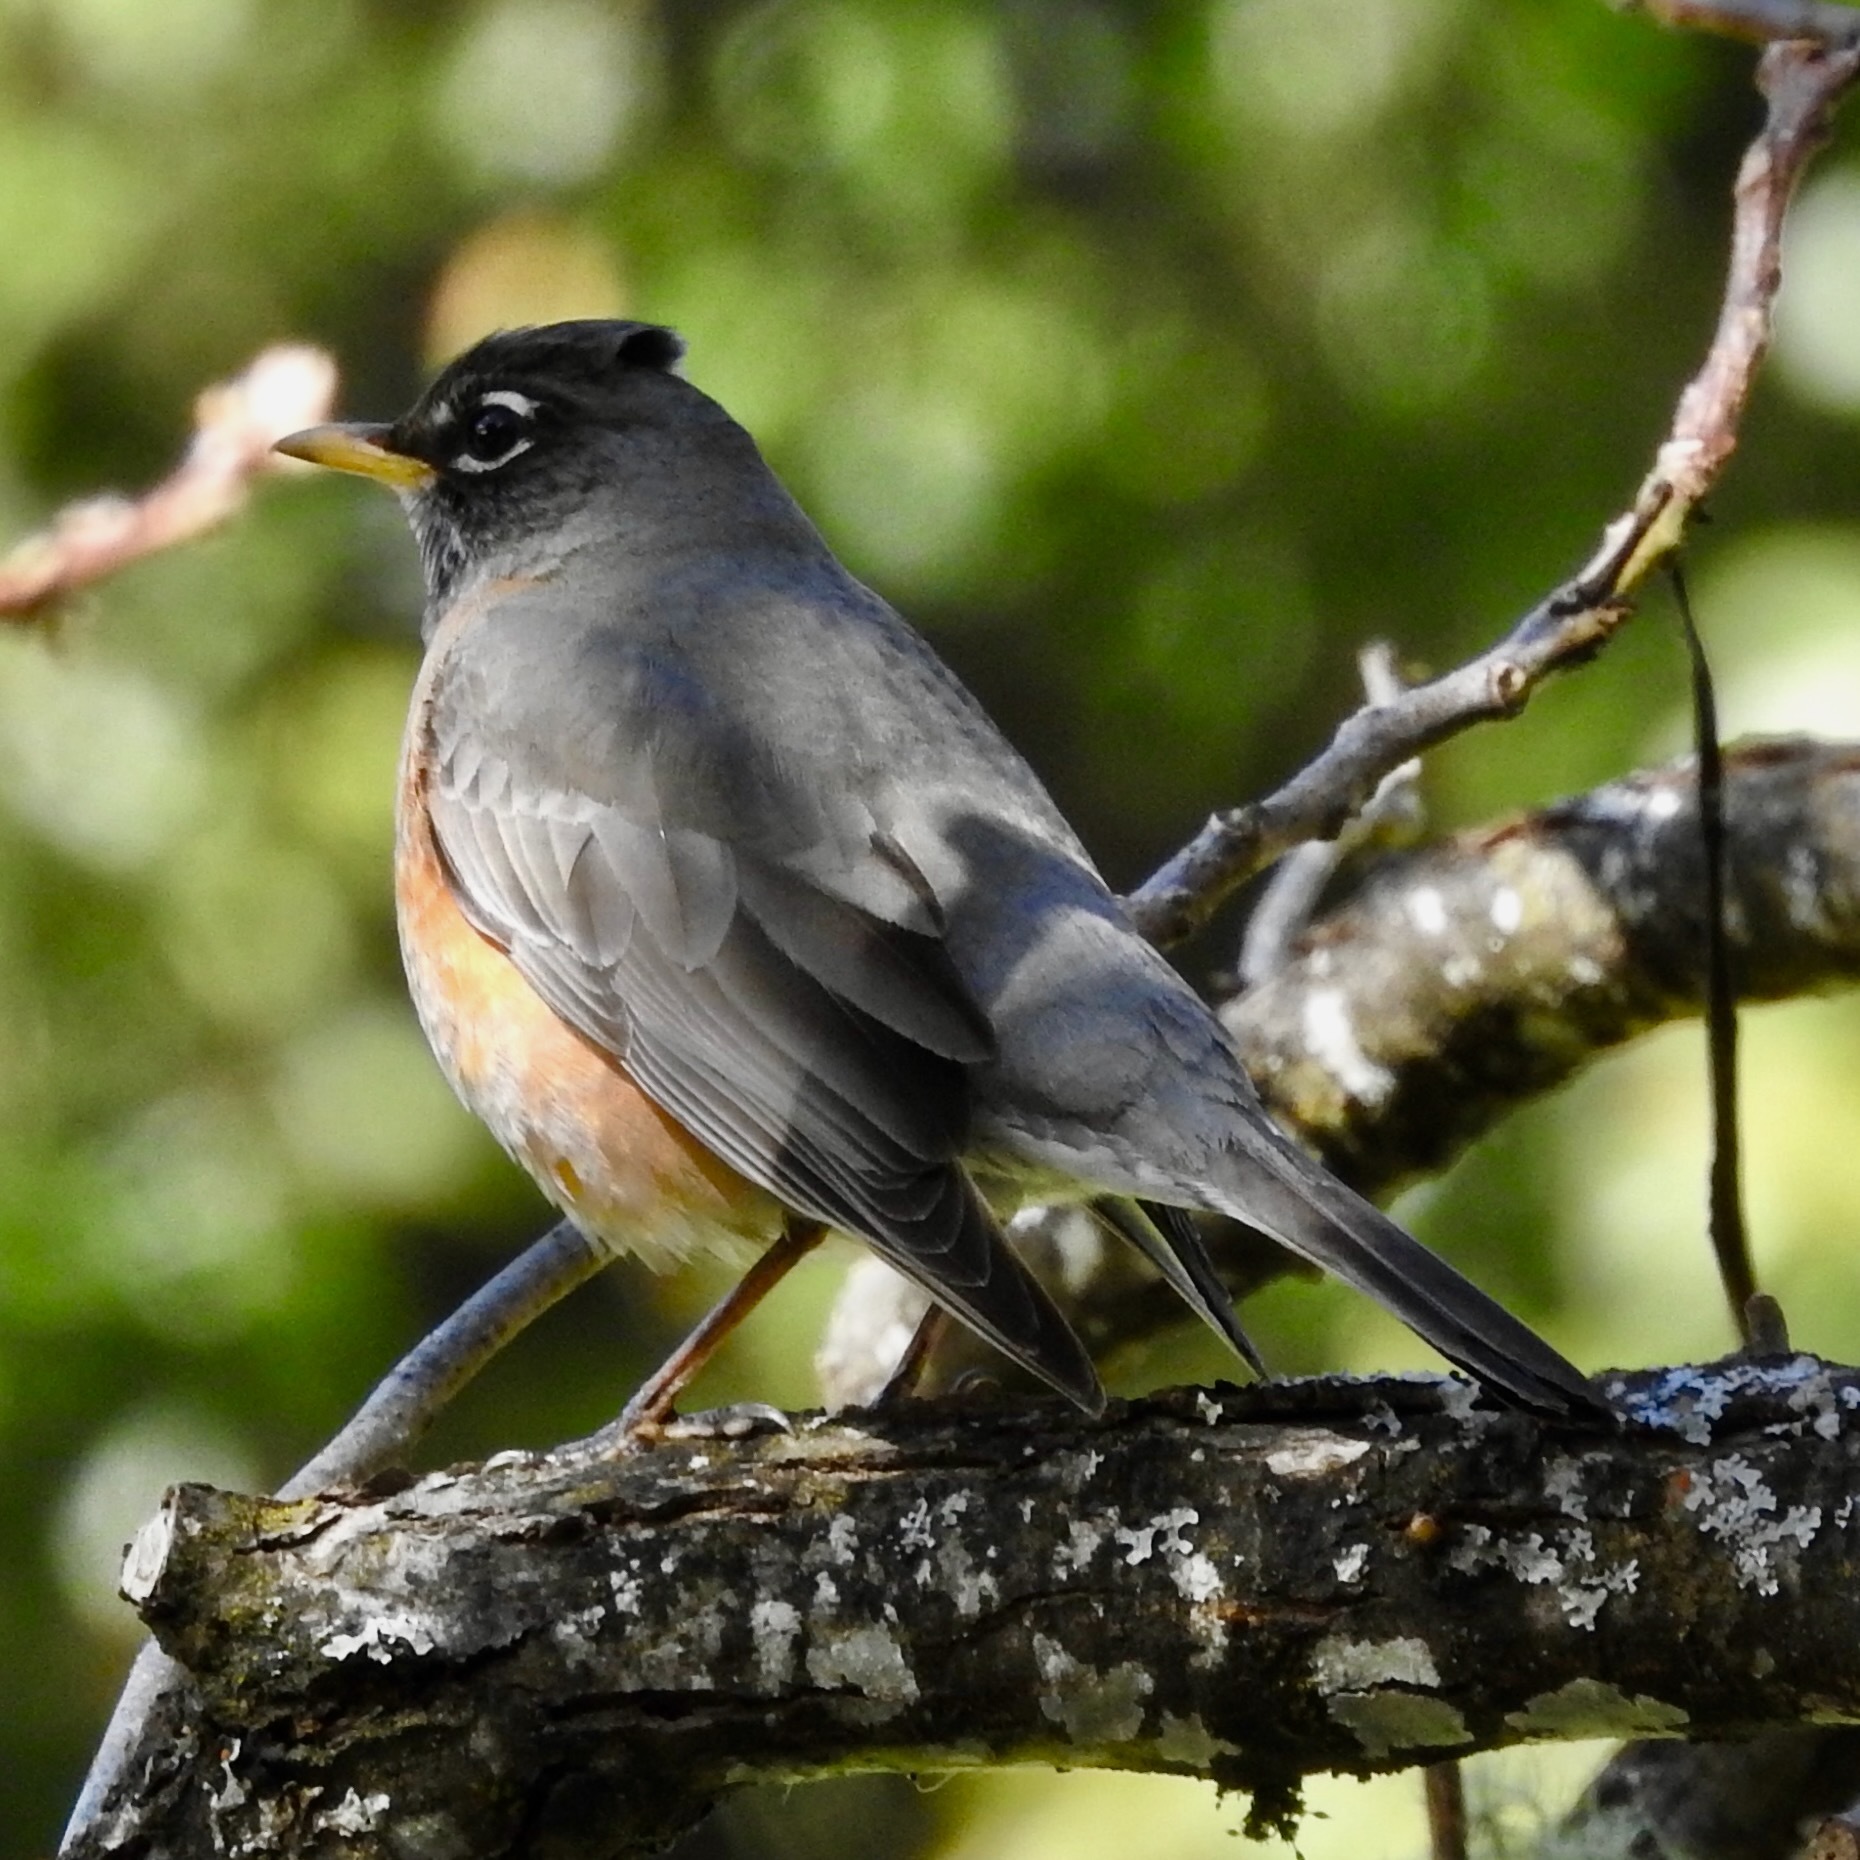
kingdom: Animalia
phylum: Chordata
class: Aves
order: Passeriformes
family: Turdidae
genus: Turdus
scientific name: Turdus migratorius
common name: American robin
